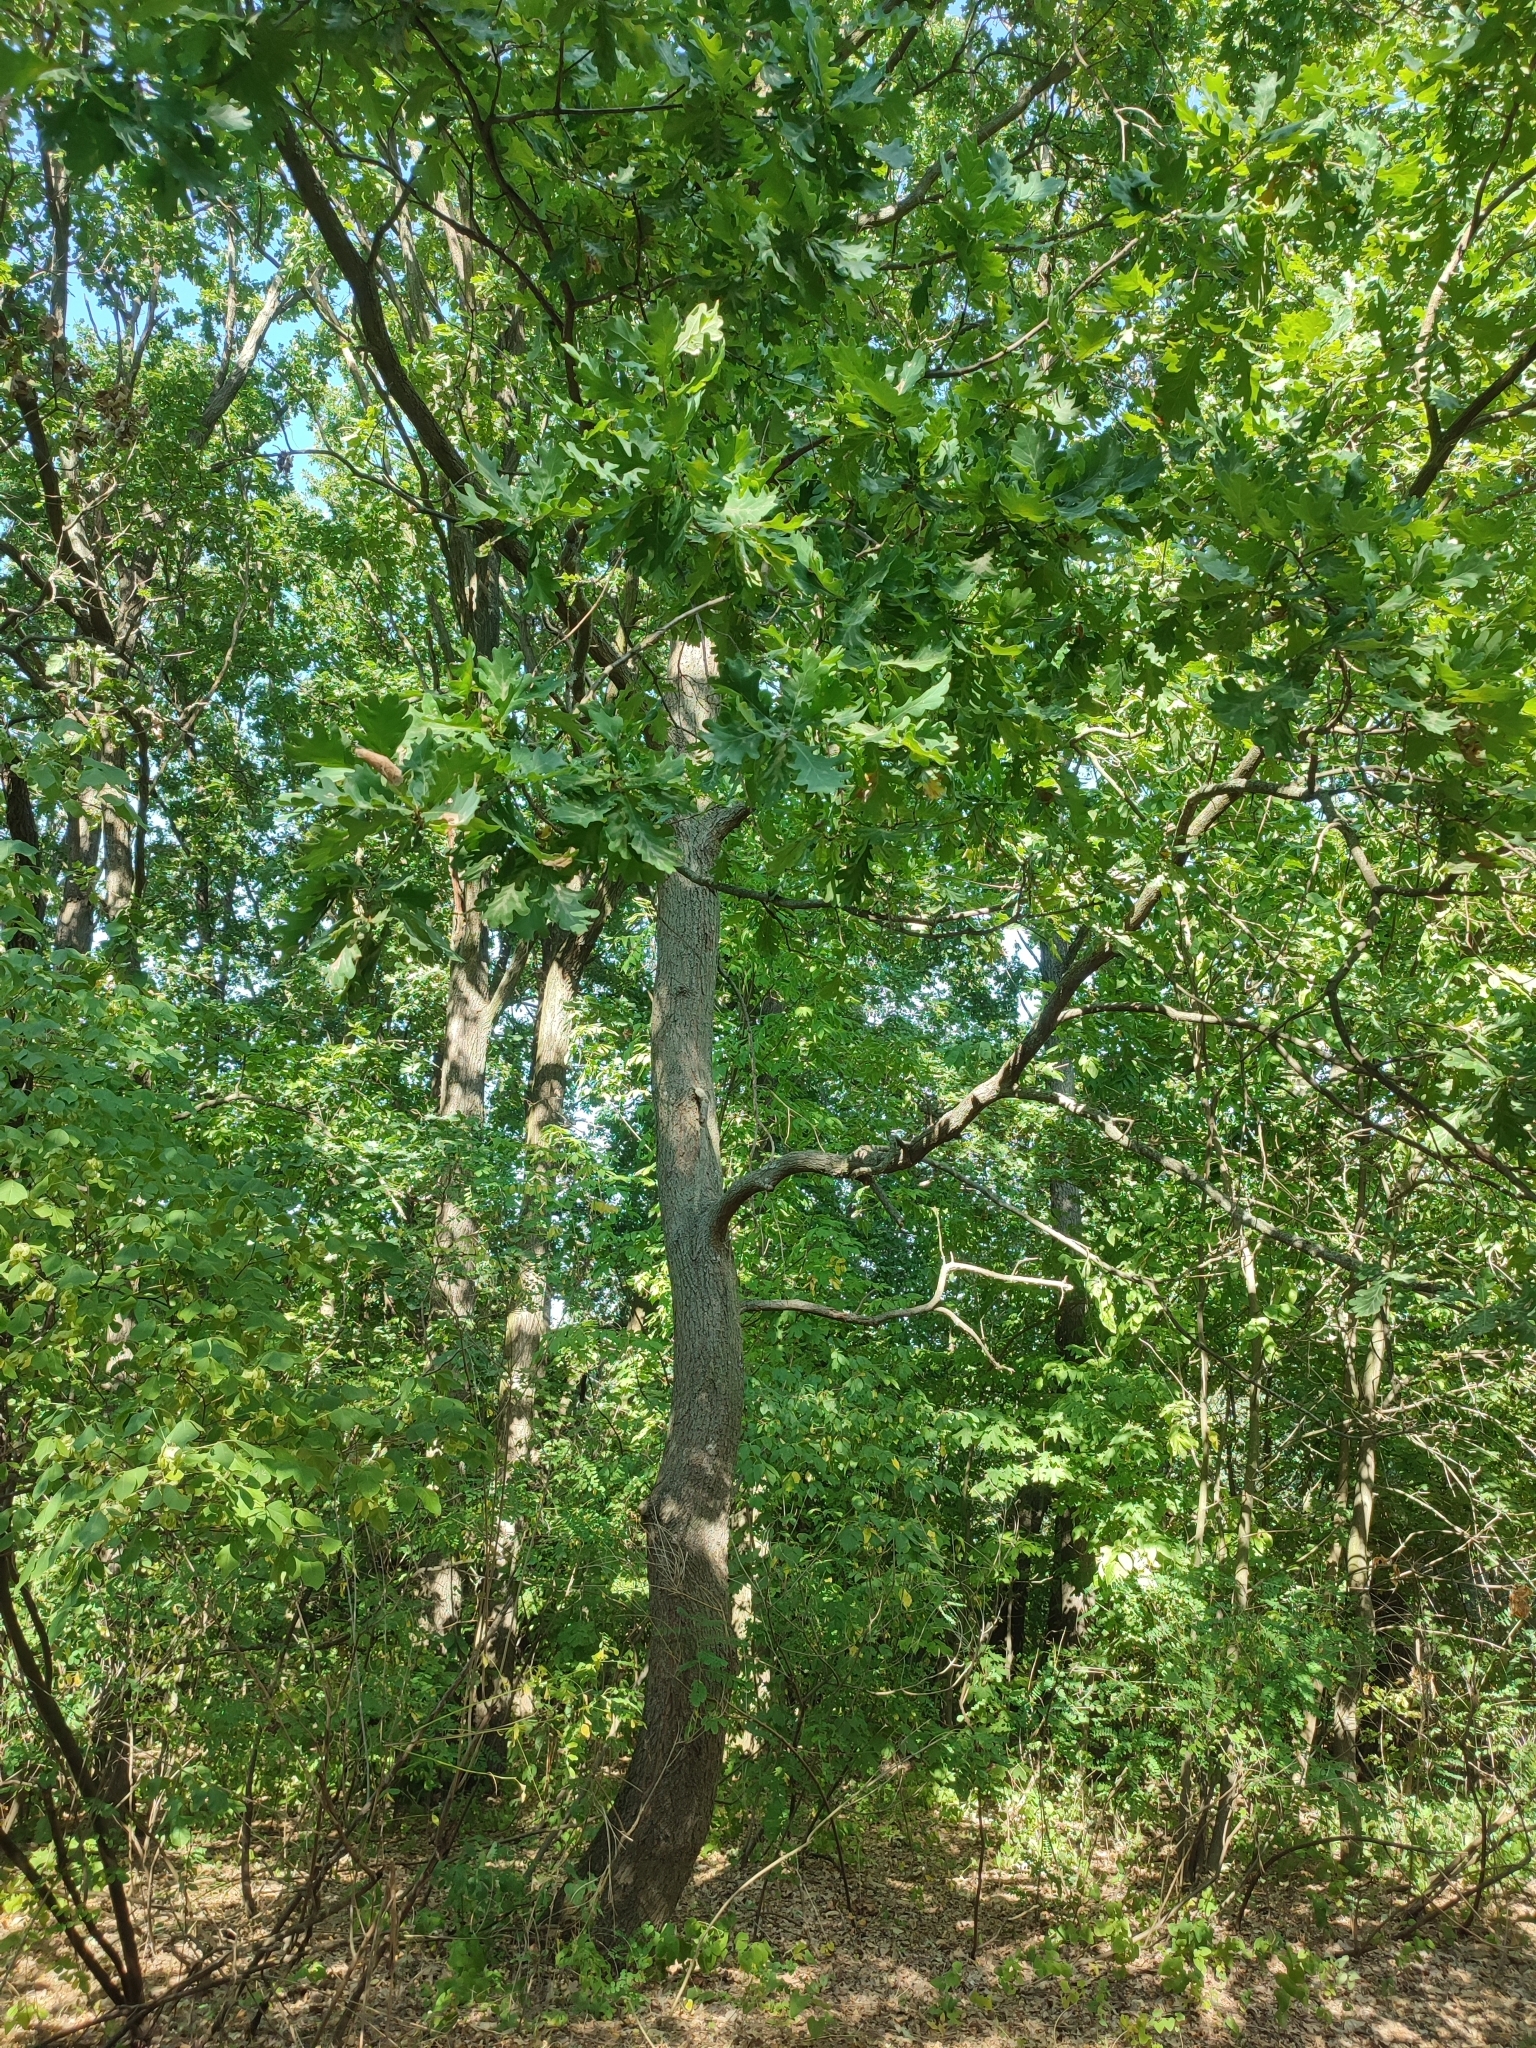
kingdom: Plantae
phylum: Tracheophyta
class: Magnoliopsida
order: Fagales
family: Fagaceae
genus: Quercus
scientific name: Quercus robur
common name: Pedunculate oak
